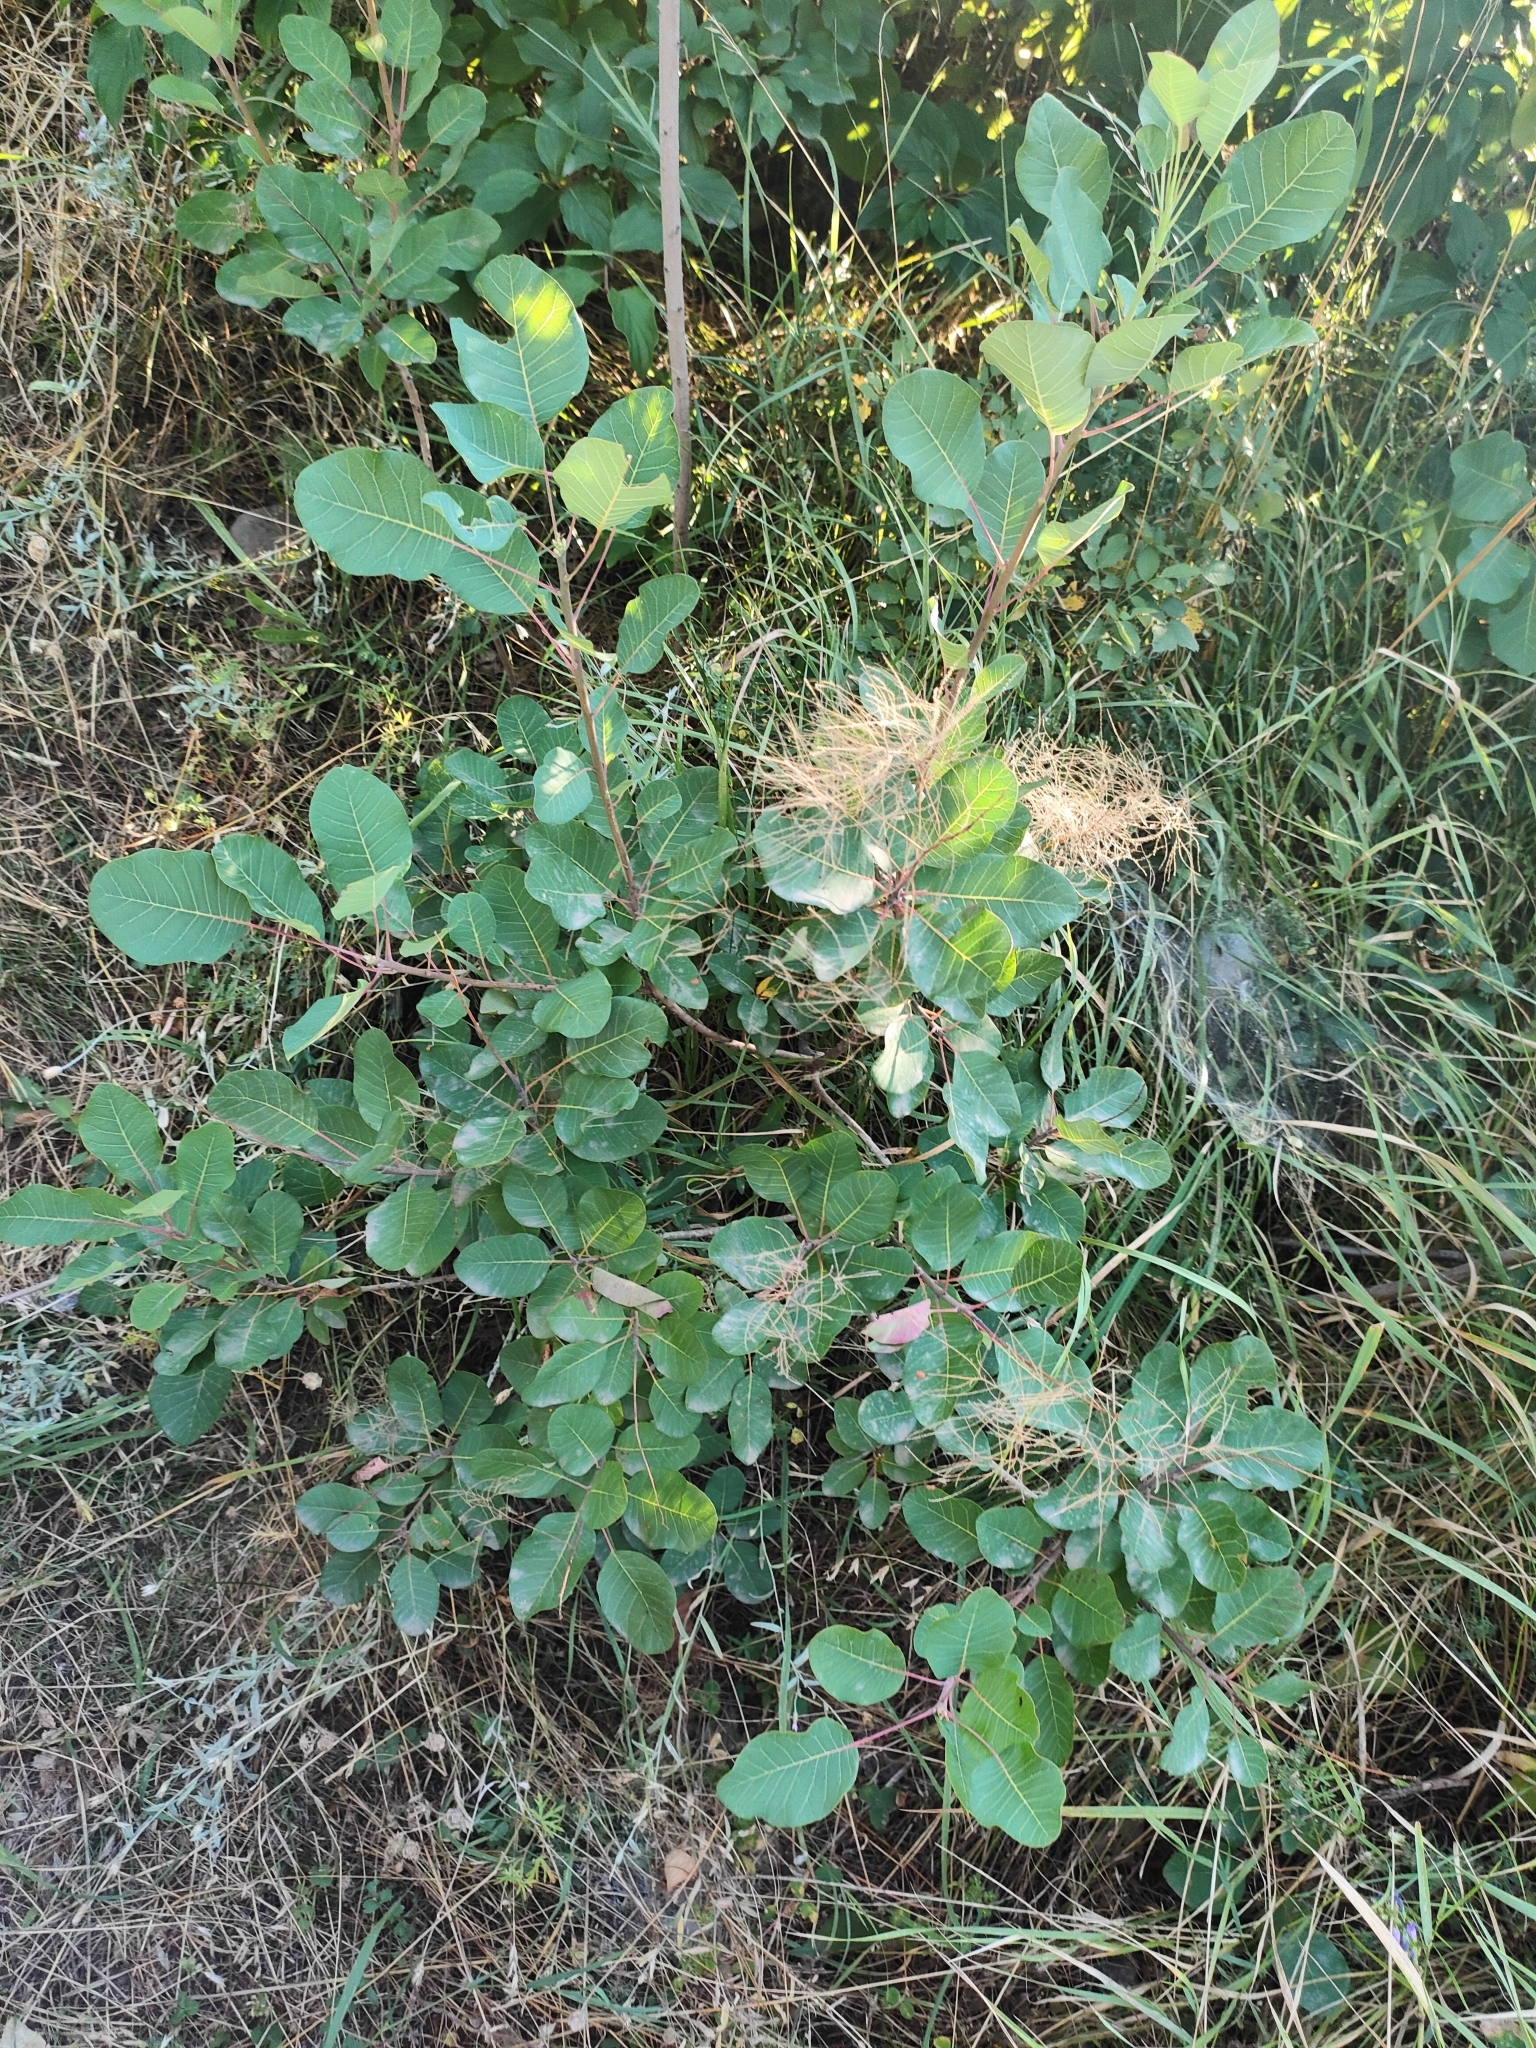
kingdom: Plantae
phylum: Tracheophyta
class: Magnoliopsida
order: Sapindales
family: Anacardiaceae
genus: Cotinus
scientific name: Cotinus coggygria
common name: Smoke-tree
